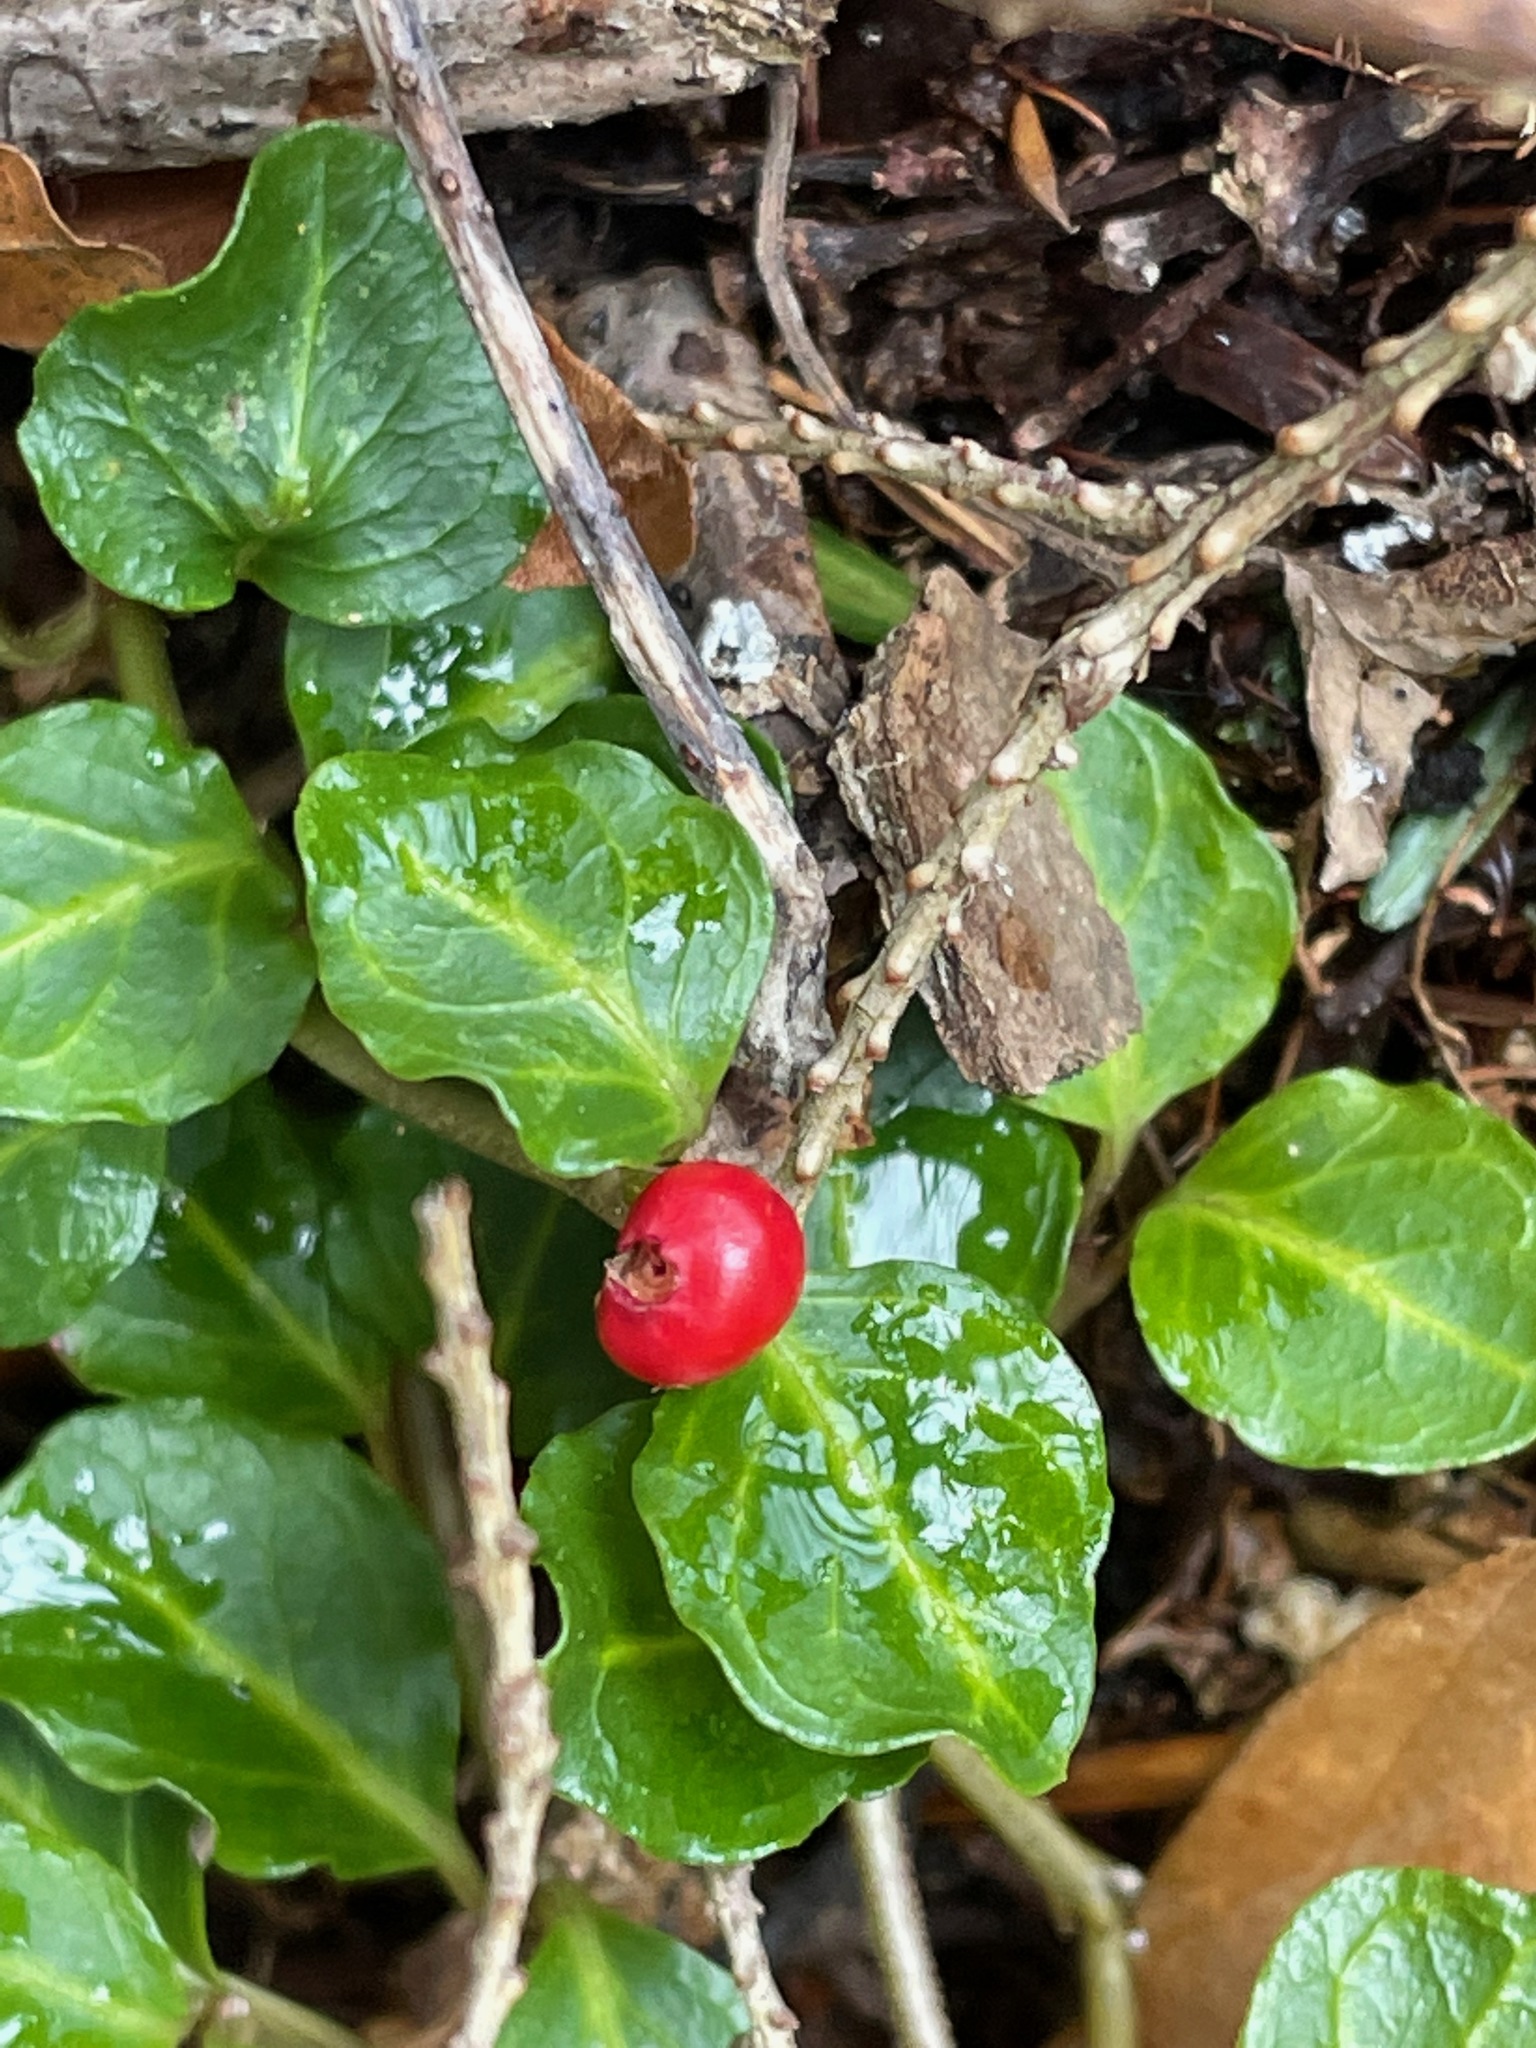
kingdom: Plantae
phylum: Tracheophyta
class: Magnoliopsida
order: Gentianales
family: Rubiaceae
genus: Mitchella
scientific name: Mitchella repens
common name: Partridge-berry
